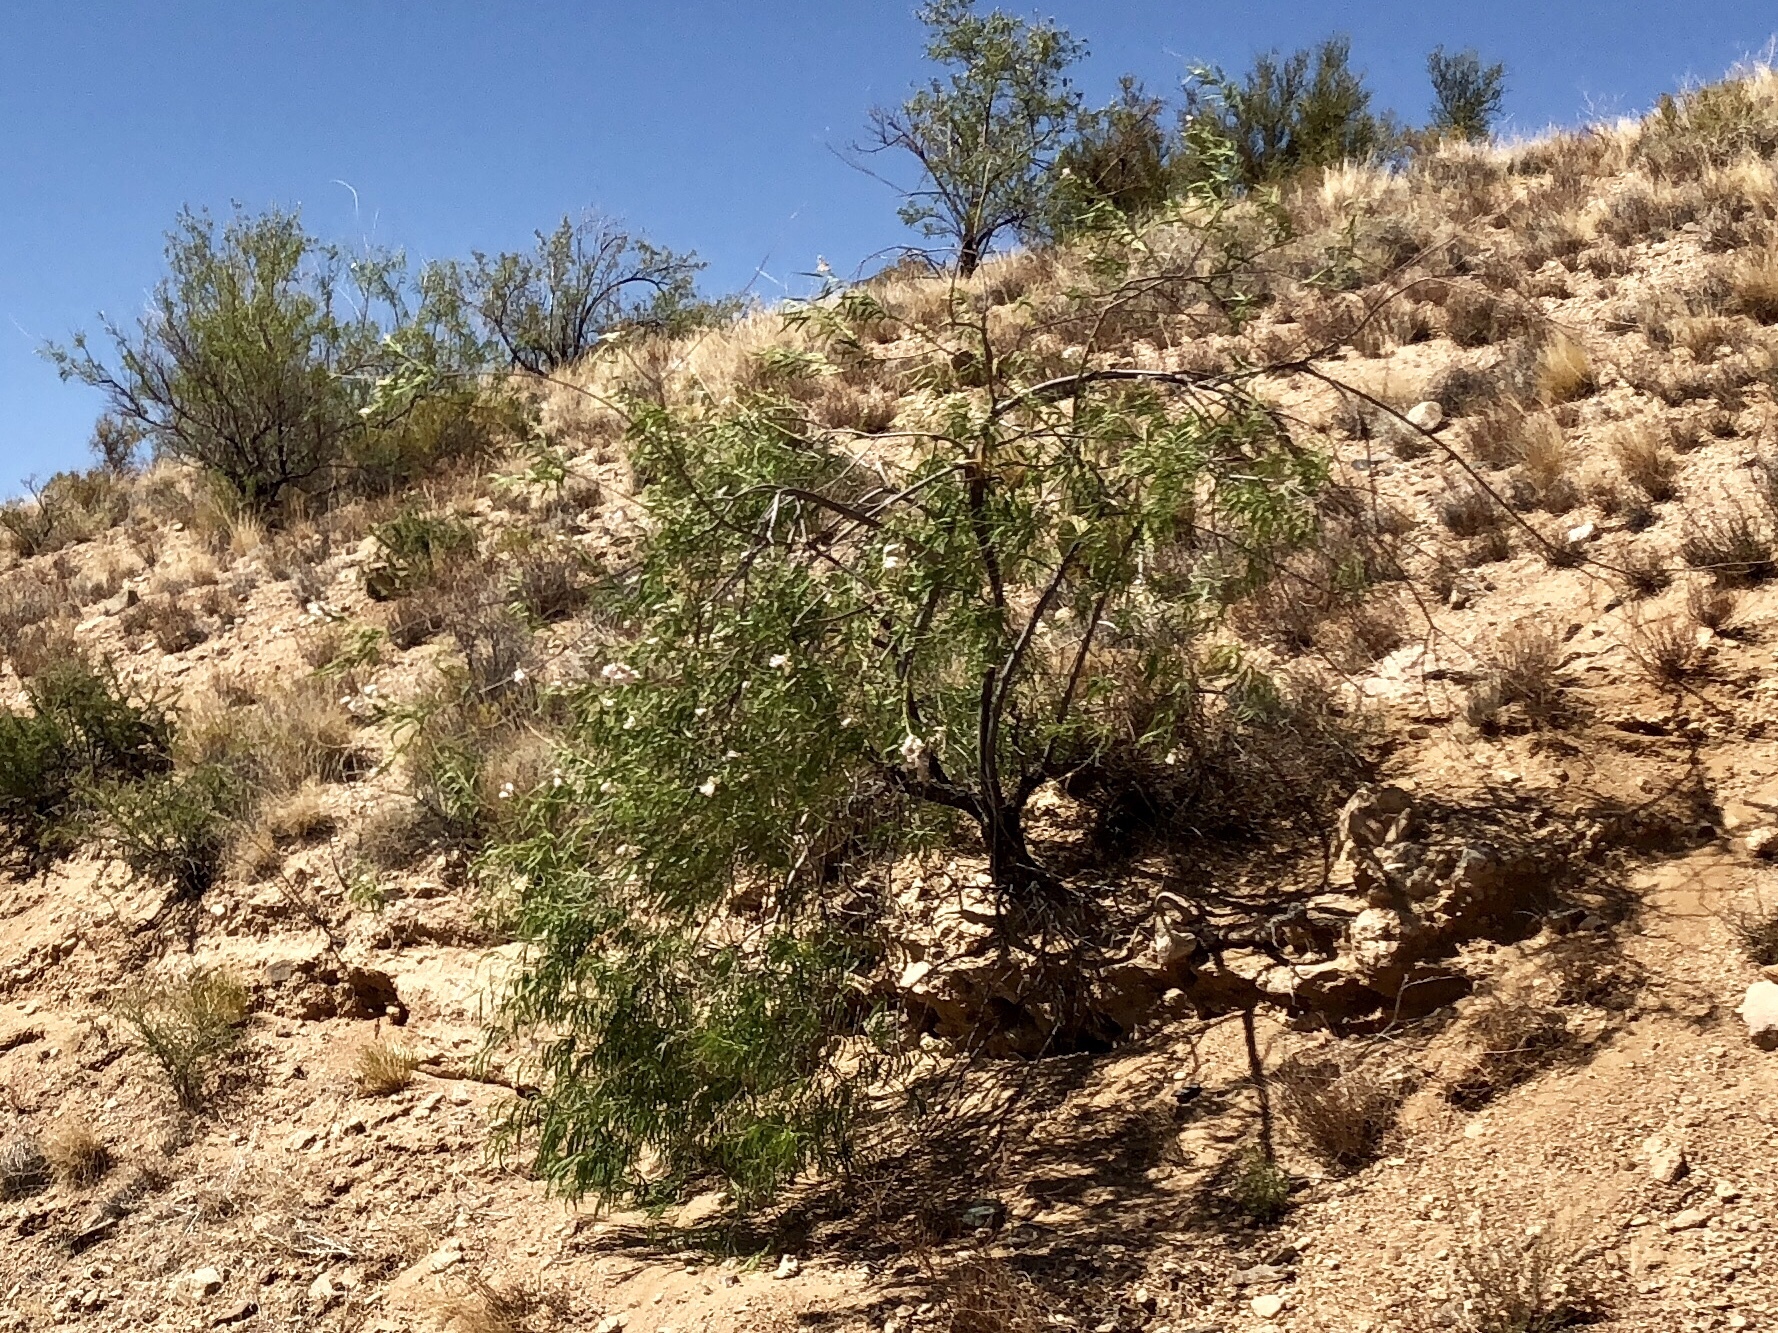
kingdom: Plantae
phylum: Tracheophyta
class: Magnoliopsida
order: Lamiales
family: Bignoniaceae
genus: Chilopsis
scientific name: Chilopsis linearis
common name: Desert-willow
